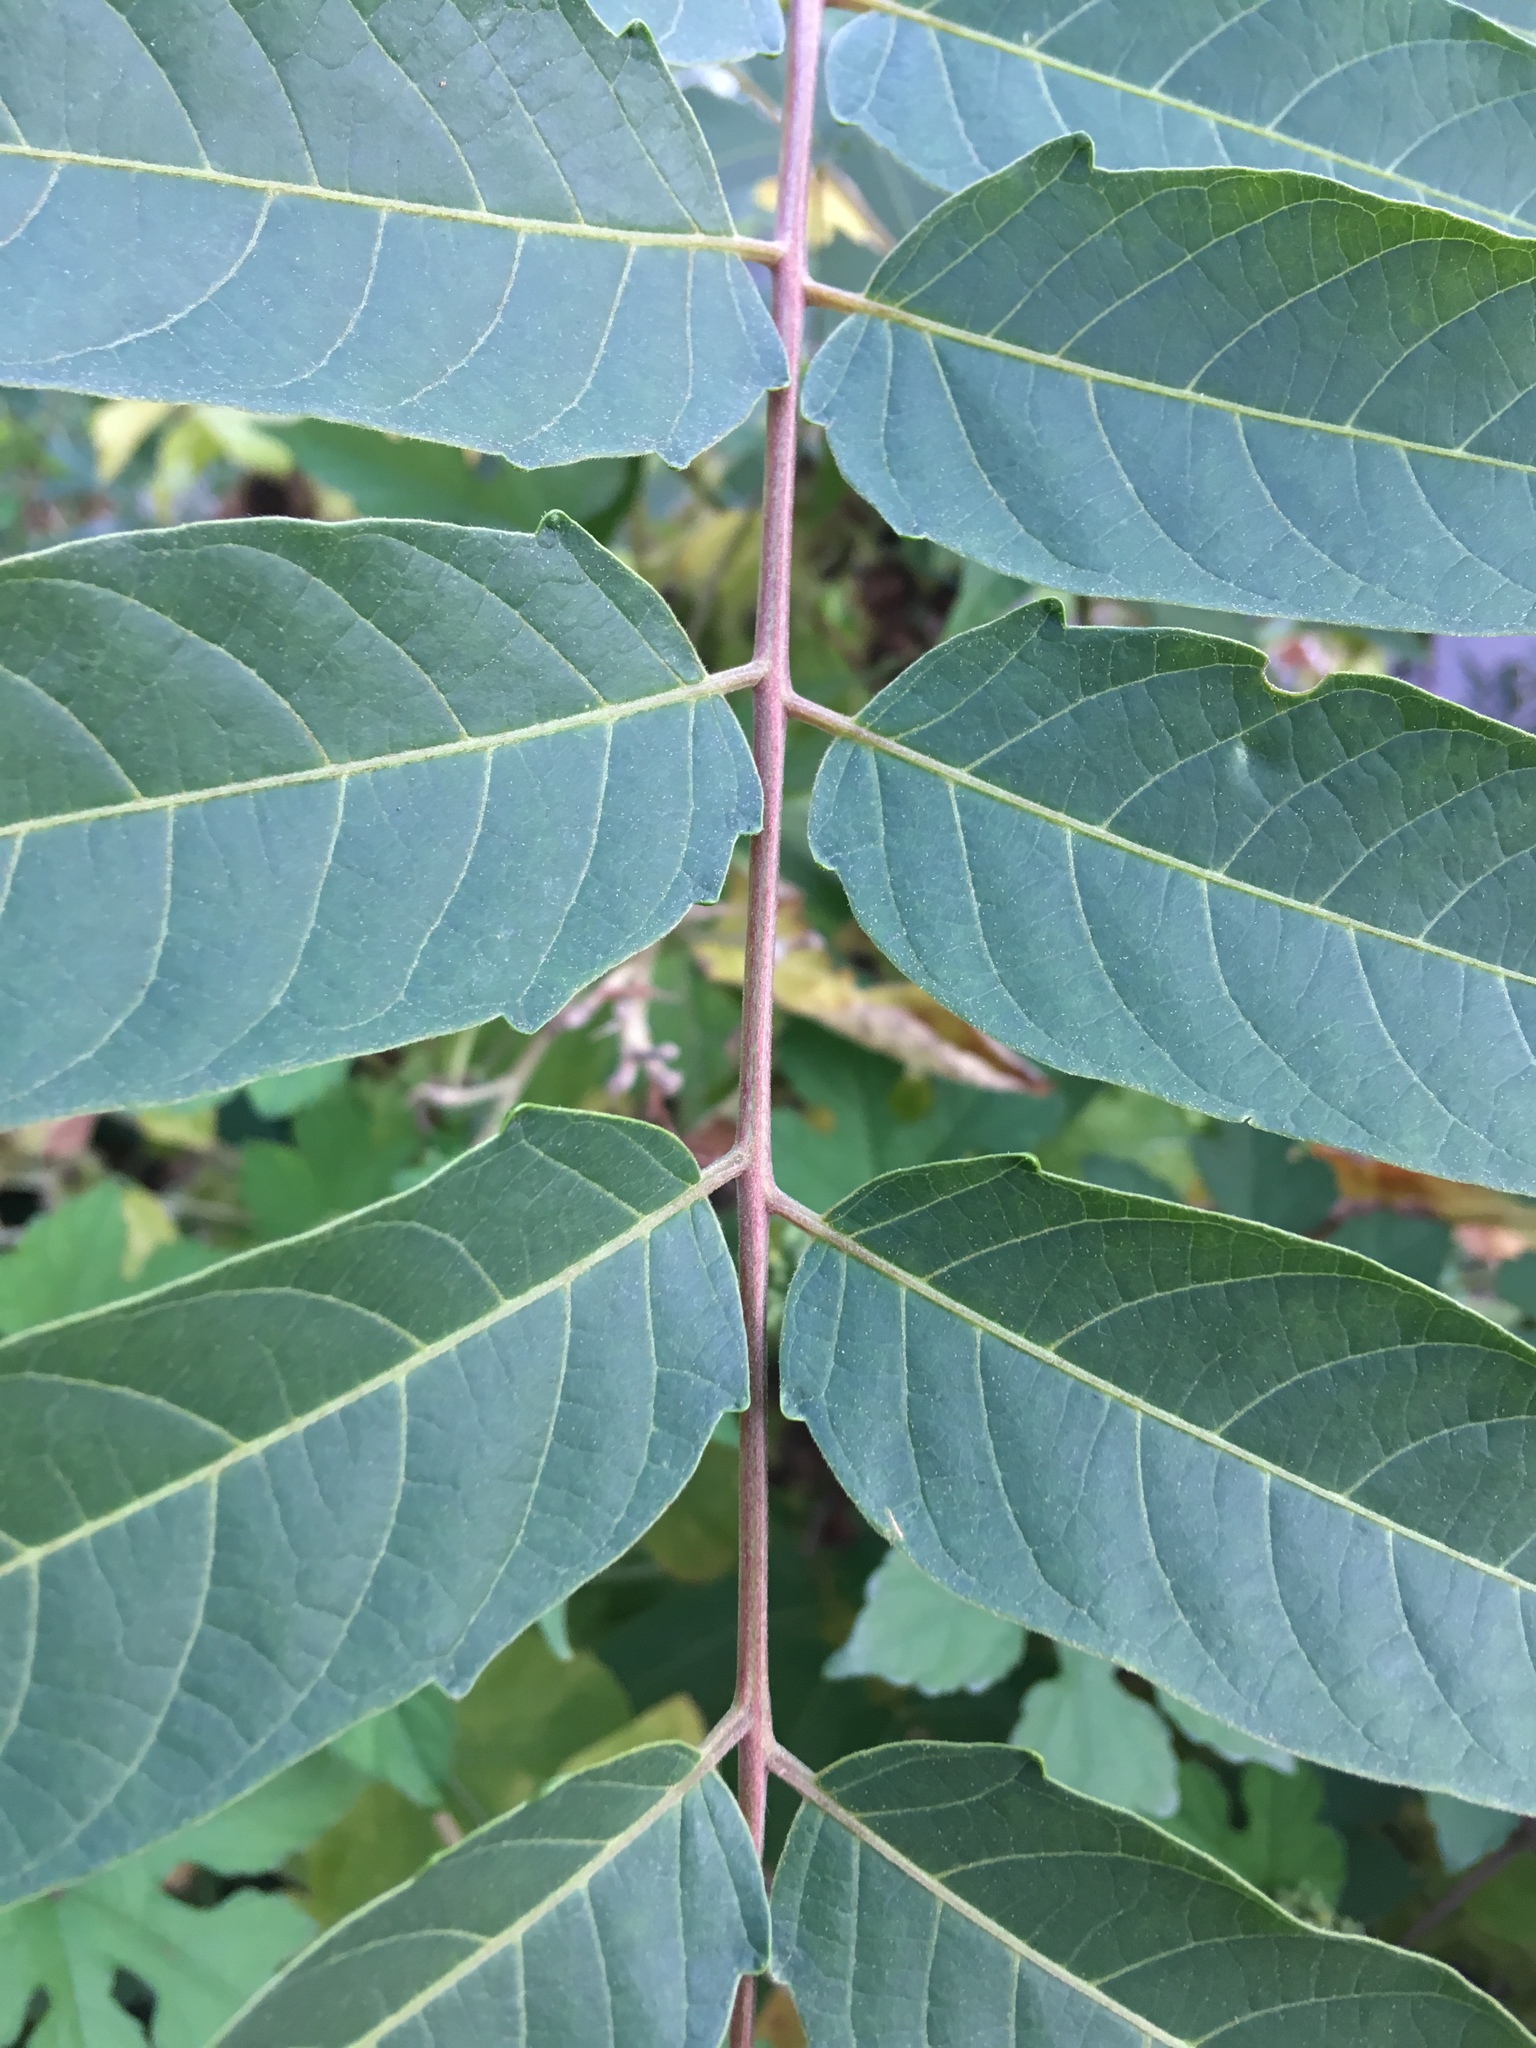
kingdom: Plantae
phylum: Tracheophyta
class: Magnoliopsida
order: Sapindales
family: Simaroubaceae
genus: Ailanthus
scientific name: Ailanthus altissima
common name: Tree-of-heaven
